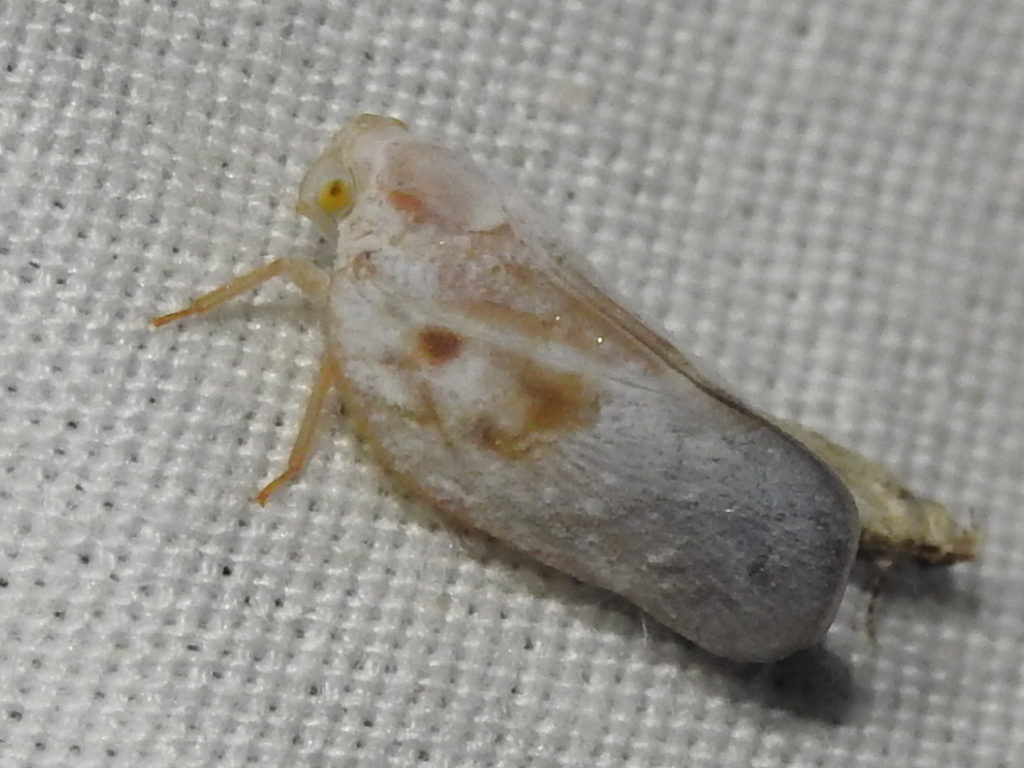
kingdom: Animalia
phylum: Arthropoda
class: Insecta
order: Hemiptera
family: Flatidae
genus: Metcalfa
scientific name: Metcalfa pruinosa
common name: Citrus flatid planthopper
